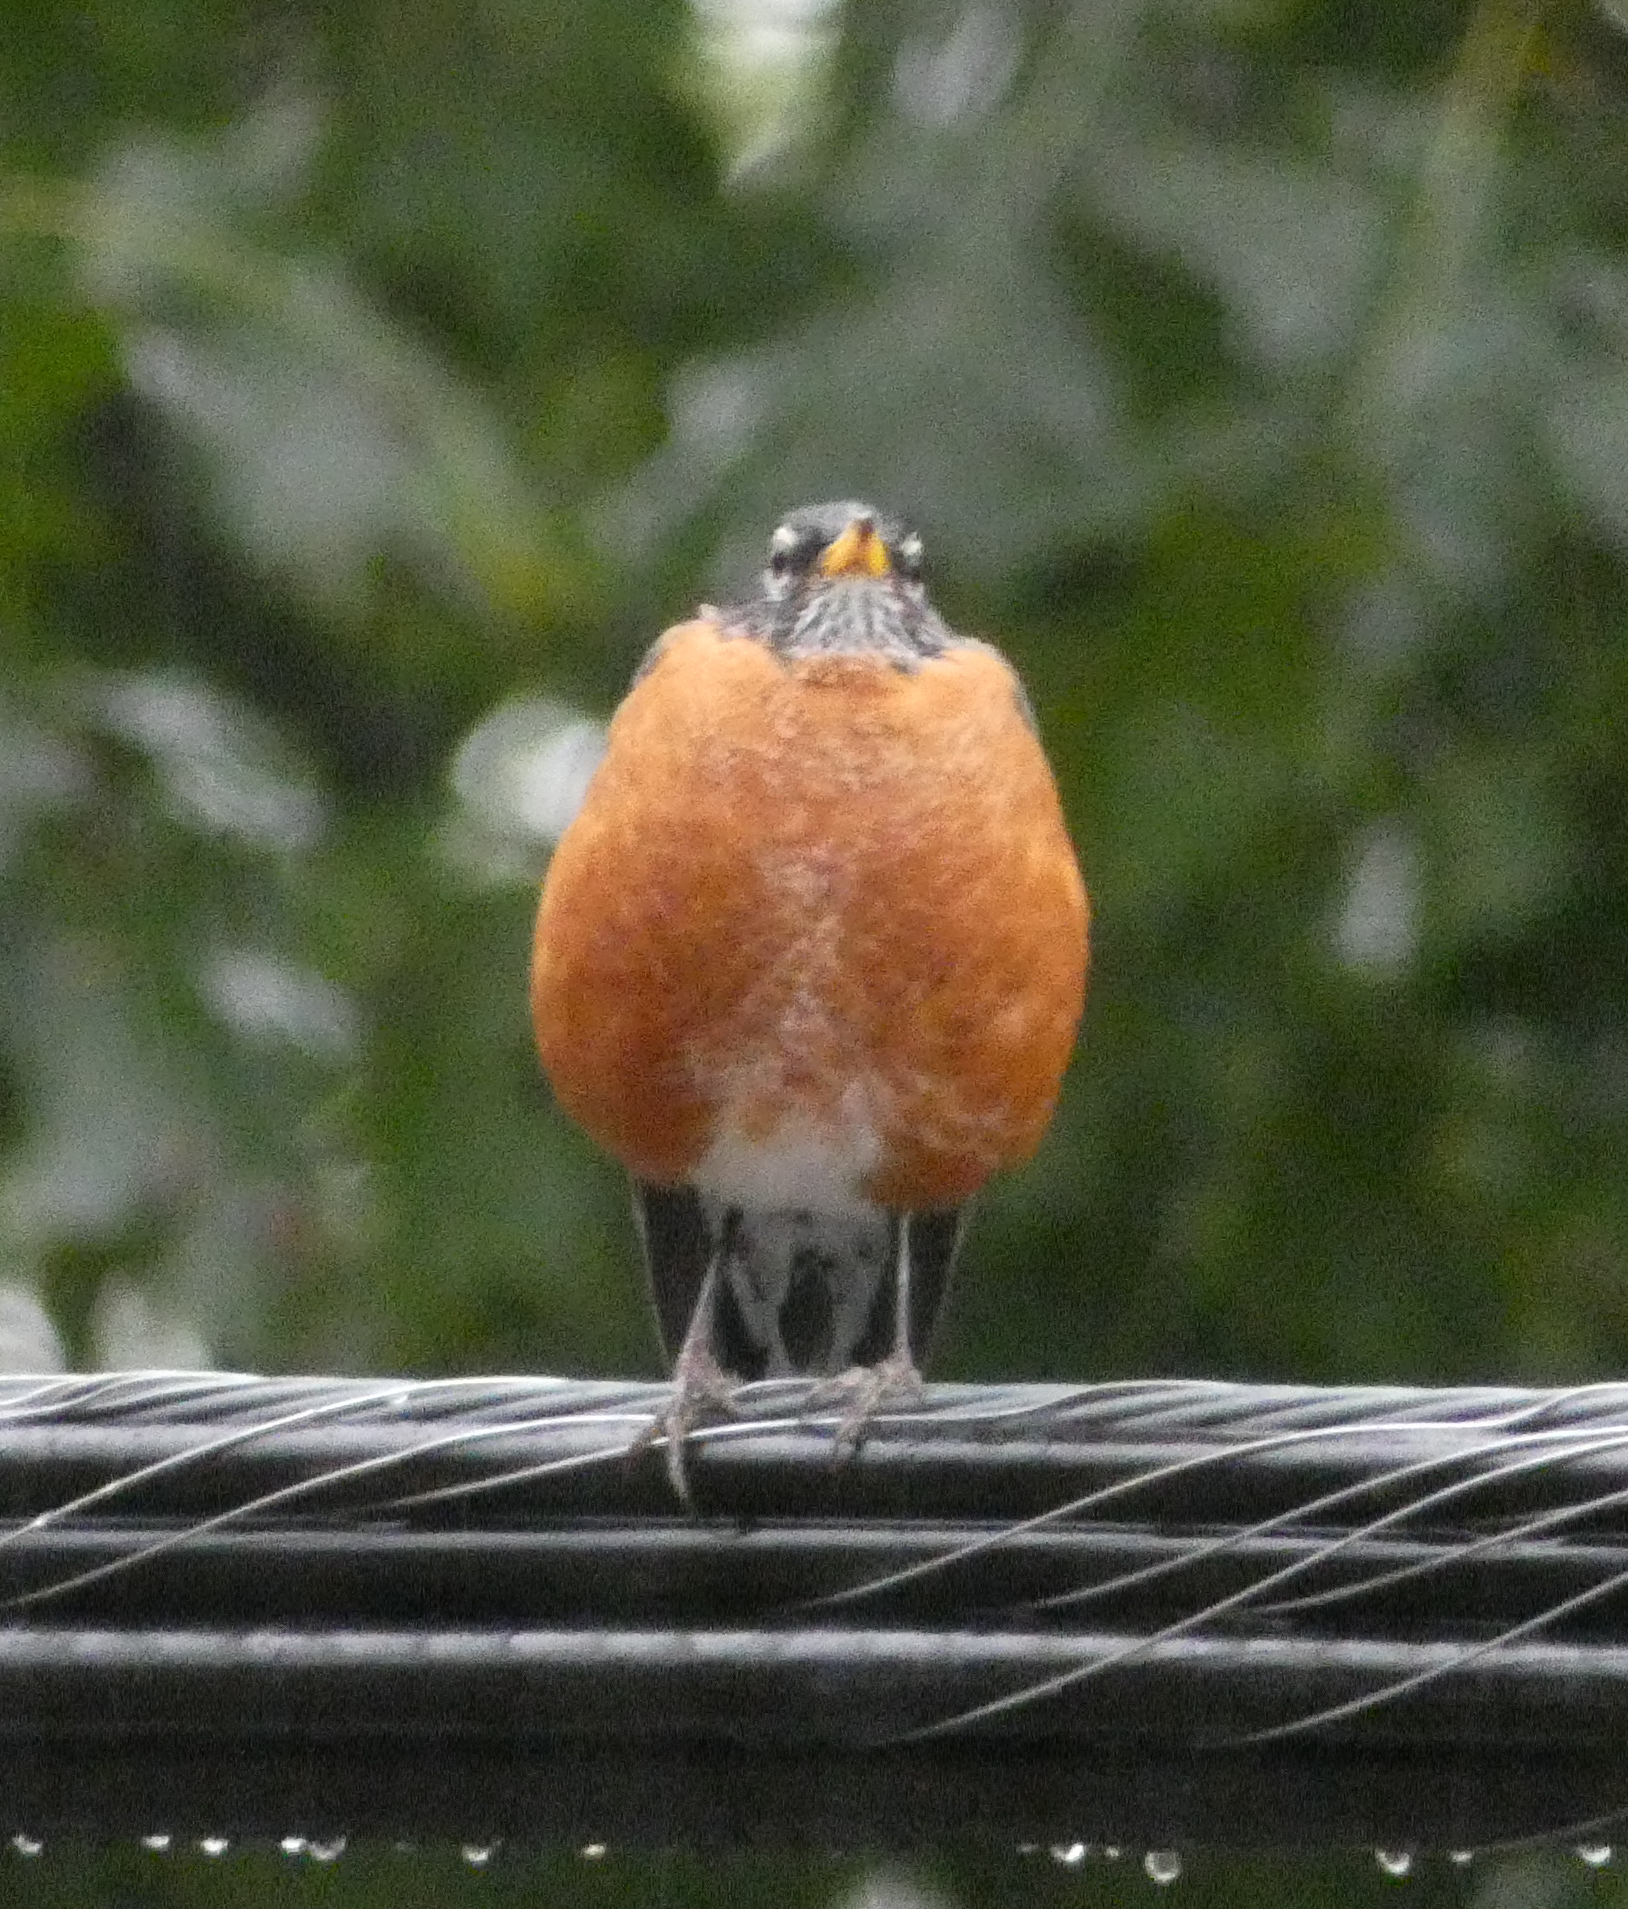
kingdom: Animalia
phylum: Chordata
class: Aves
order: Passeriformes
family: Turdidae
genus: Turdus
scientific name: Turdus migratorius
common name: American robin
